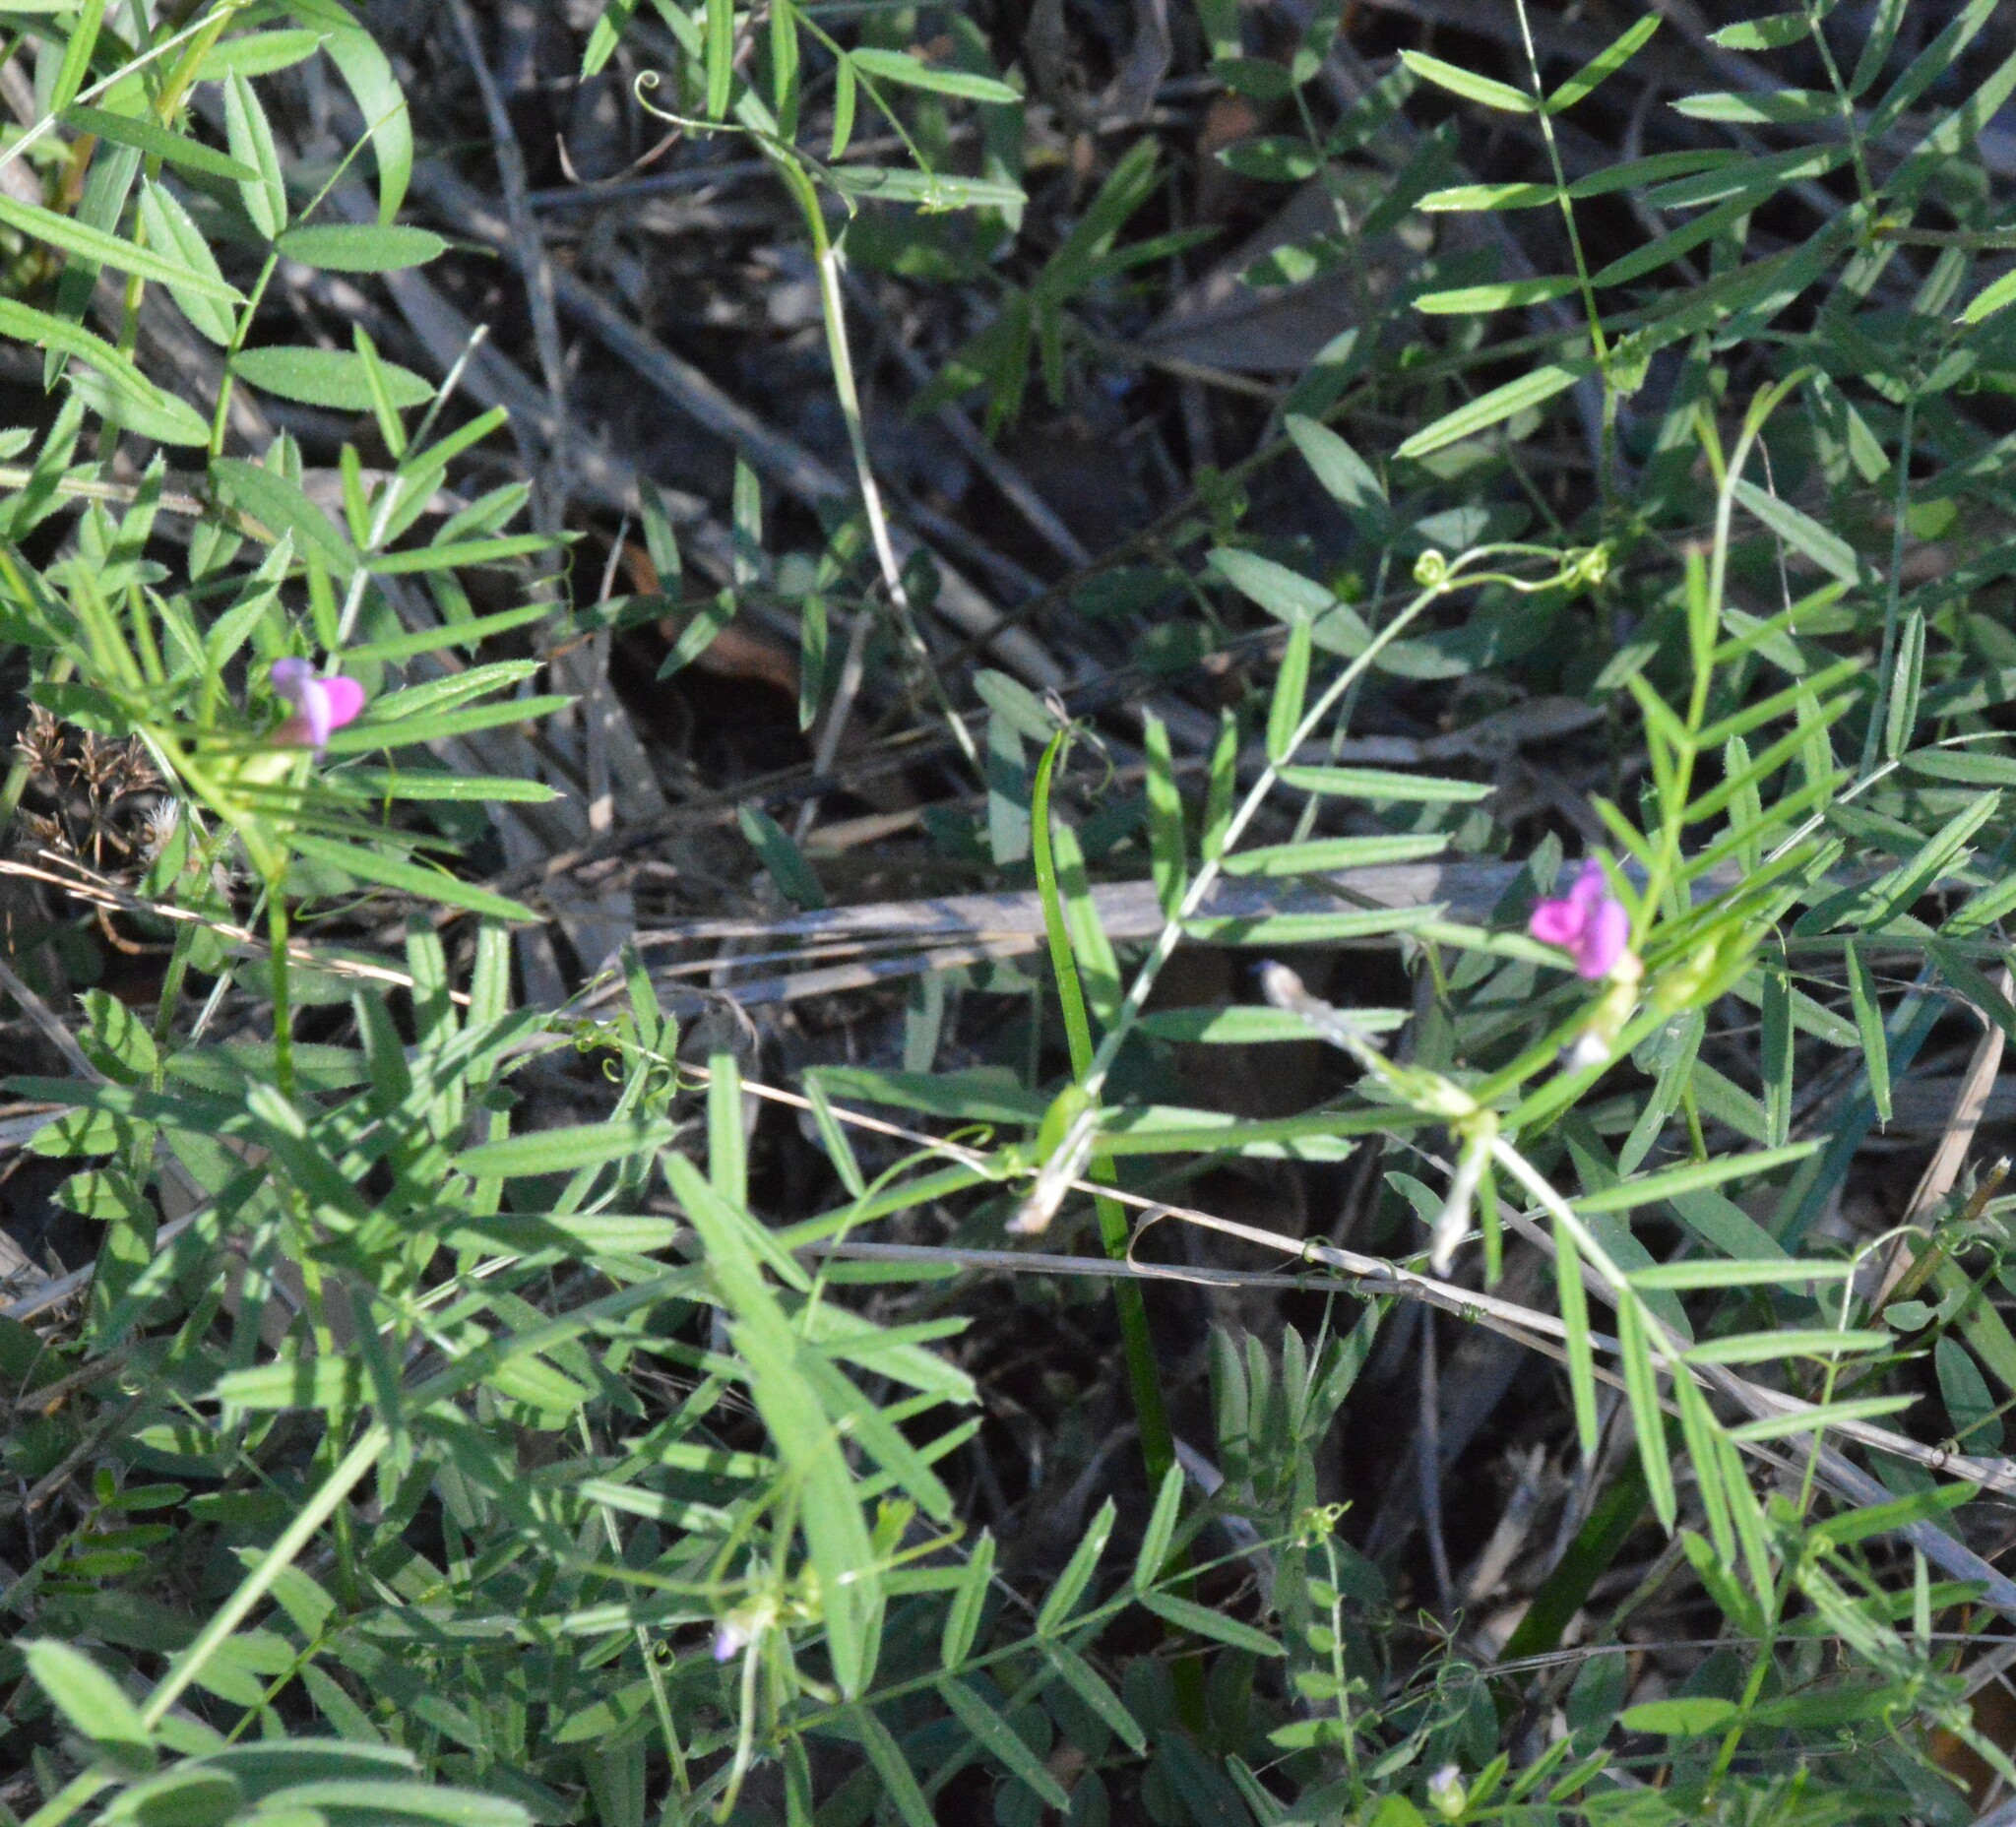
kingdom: Plantae
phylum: Tracheophyta
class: Magnoliopsida
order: Fabales
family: Fabaceae
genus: Vicia
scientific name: Vicia sativa
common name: Garden vetch
